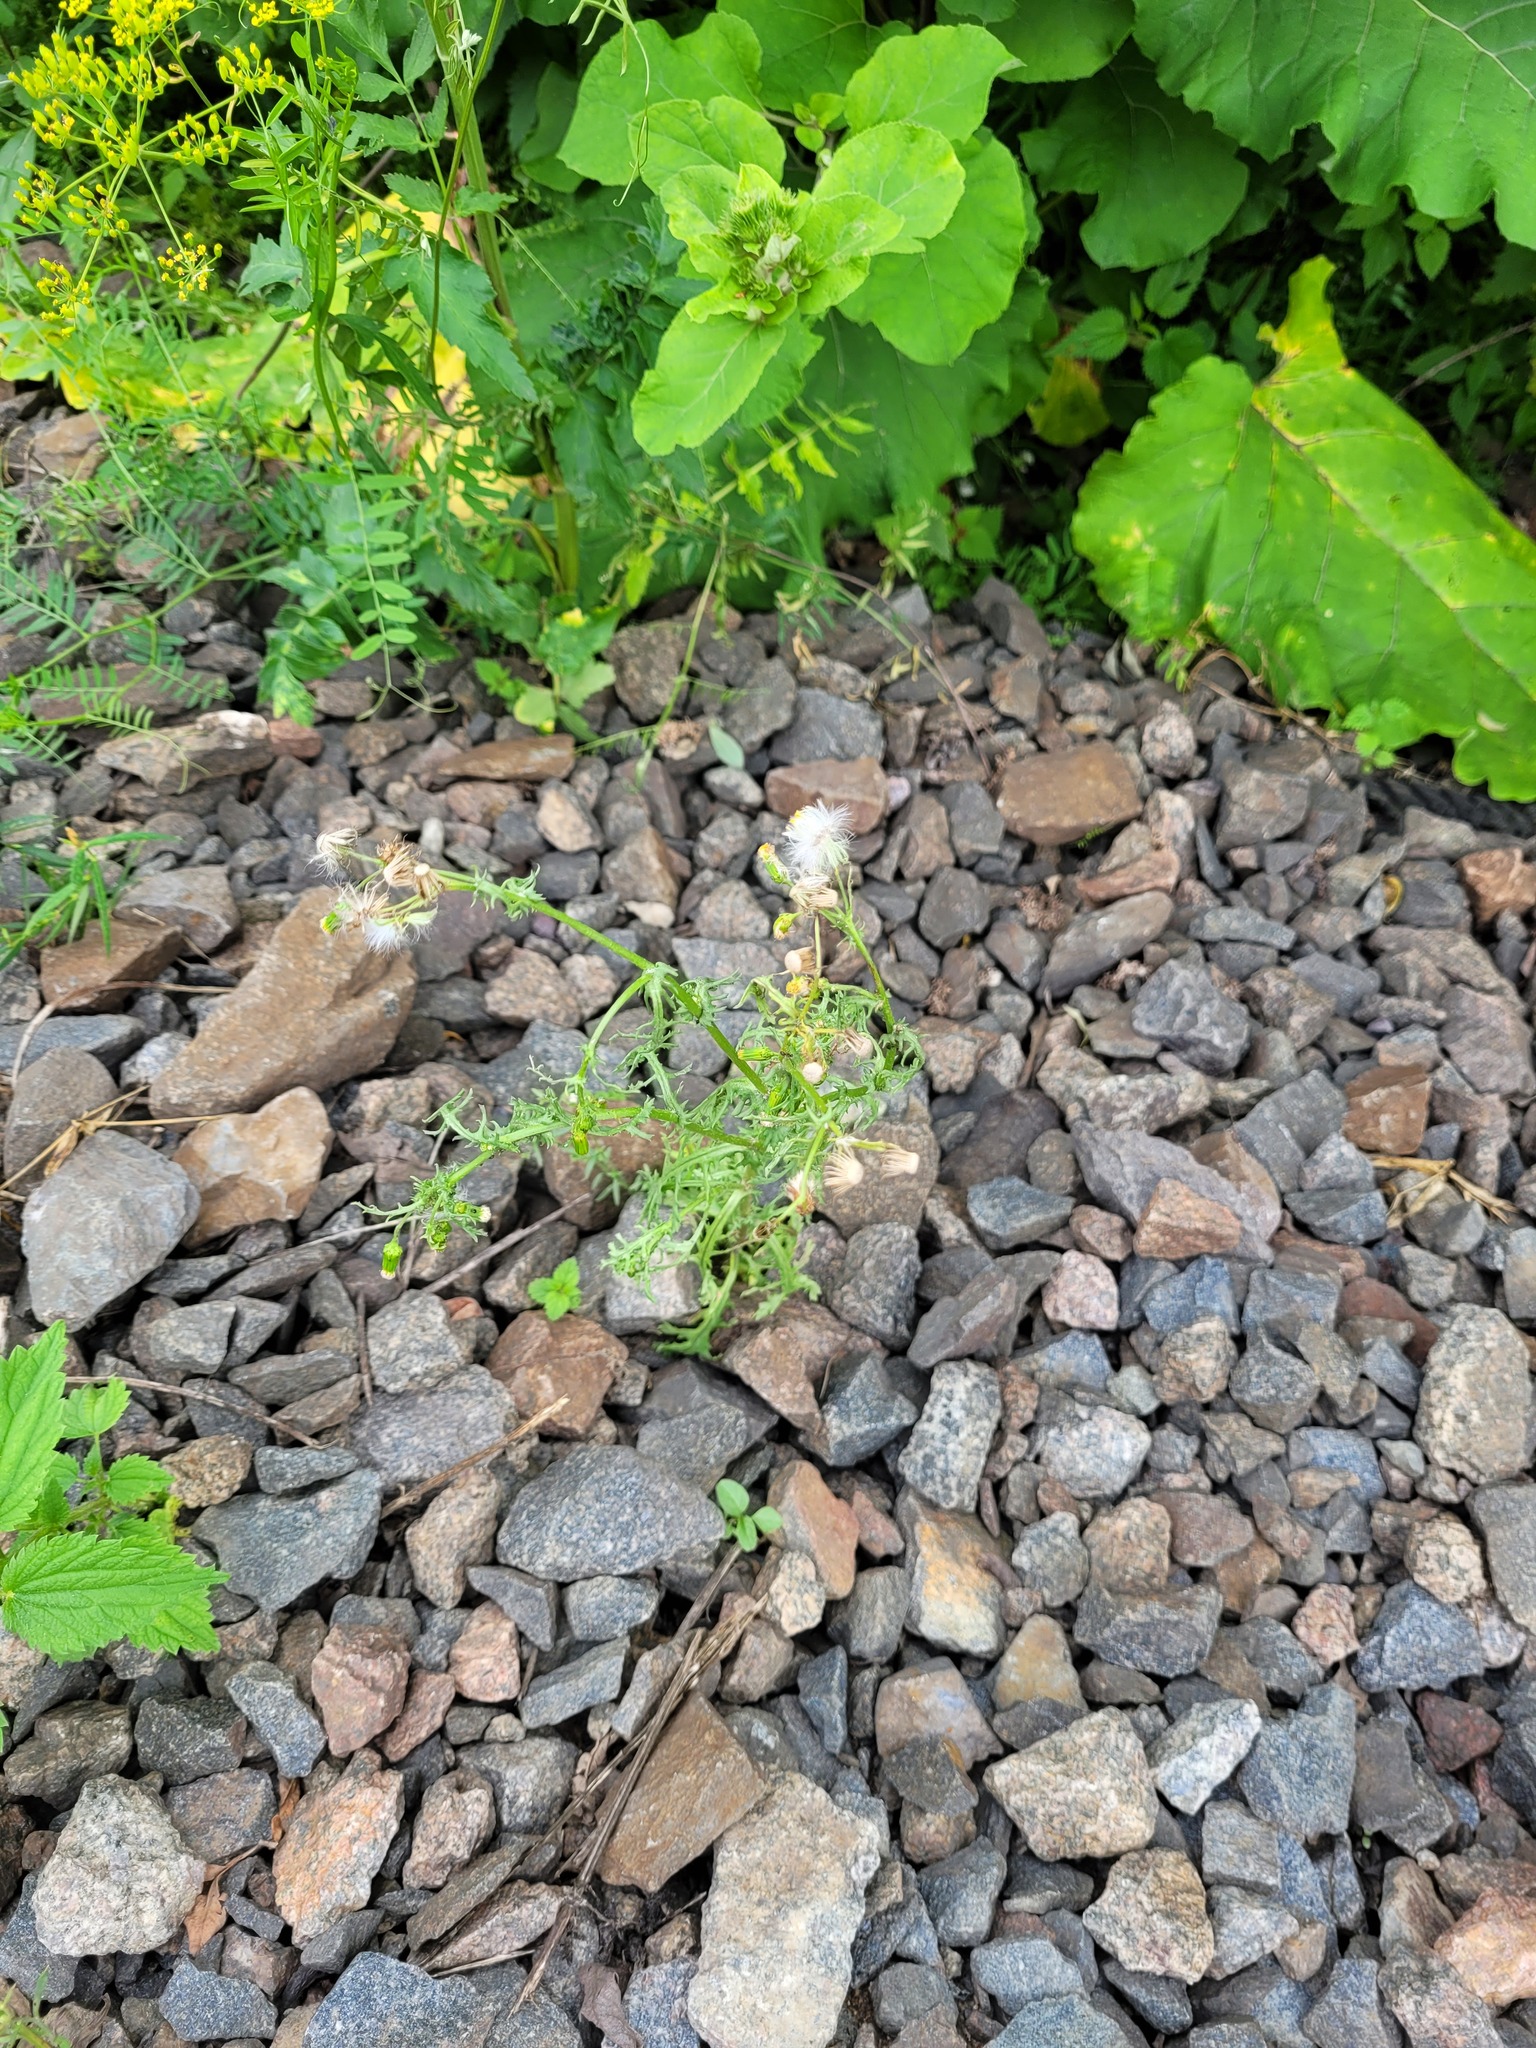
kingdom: Plantae
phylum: Tracheophyta
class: Magnoliopsida
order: Asterales
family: Asteraceae
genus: Senecio
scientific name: Senecio vulgaris
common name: Old-man-in-the-spring
